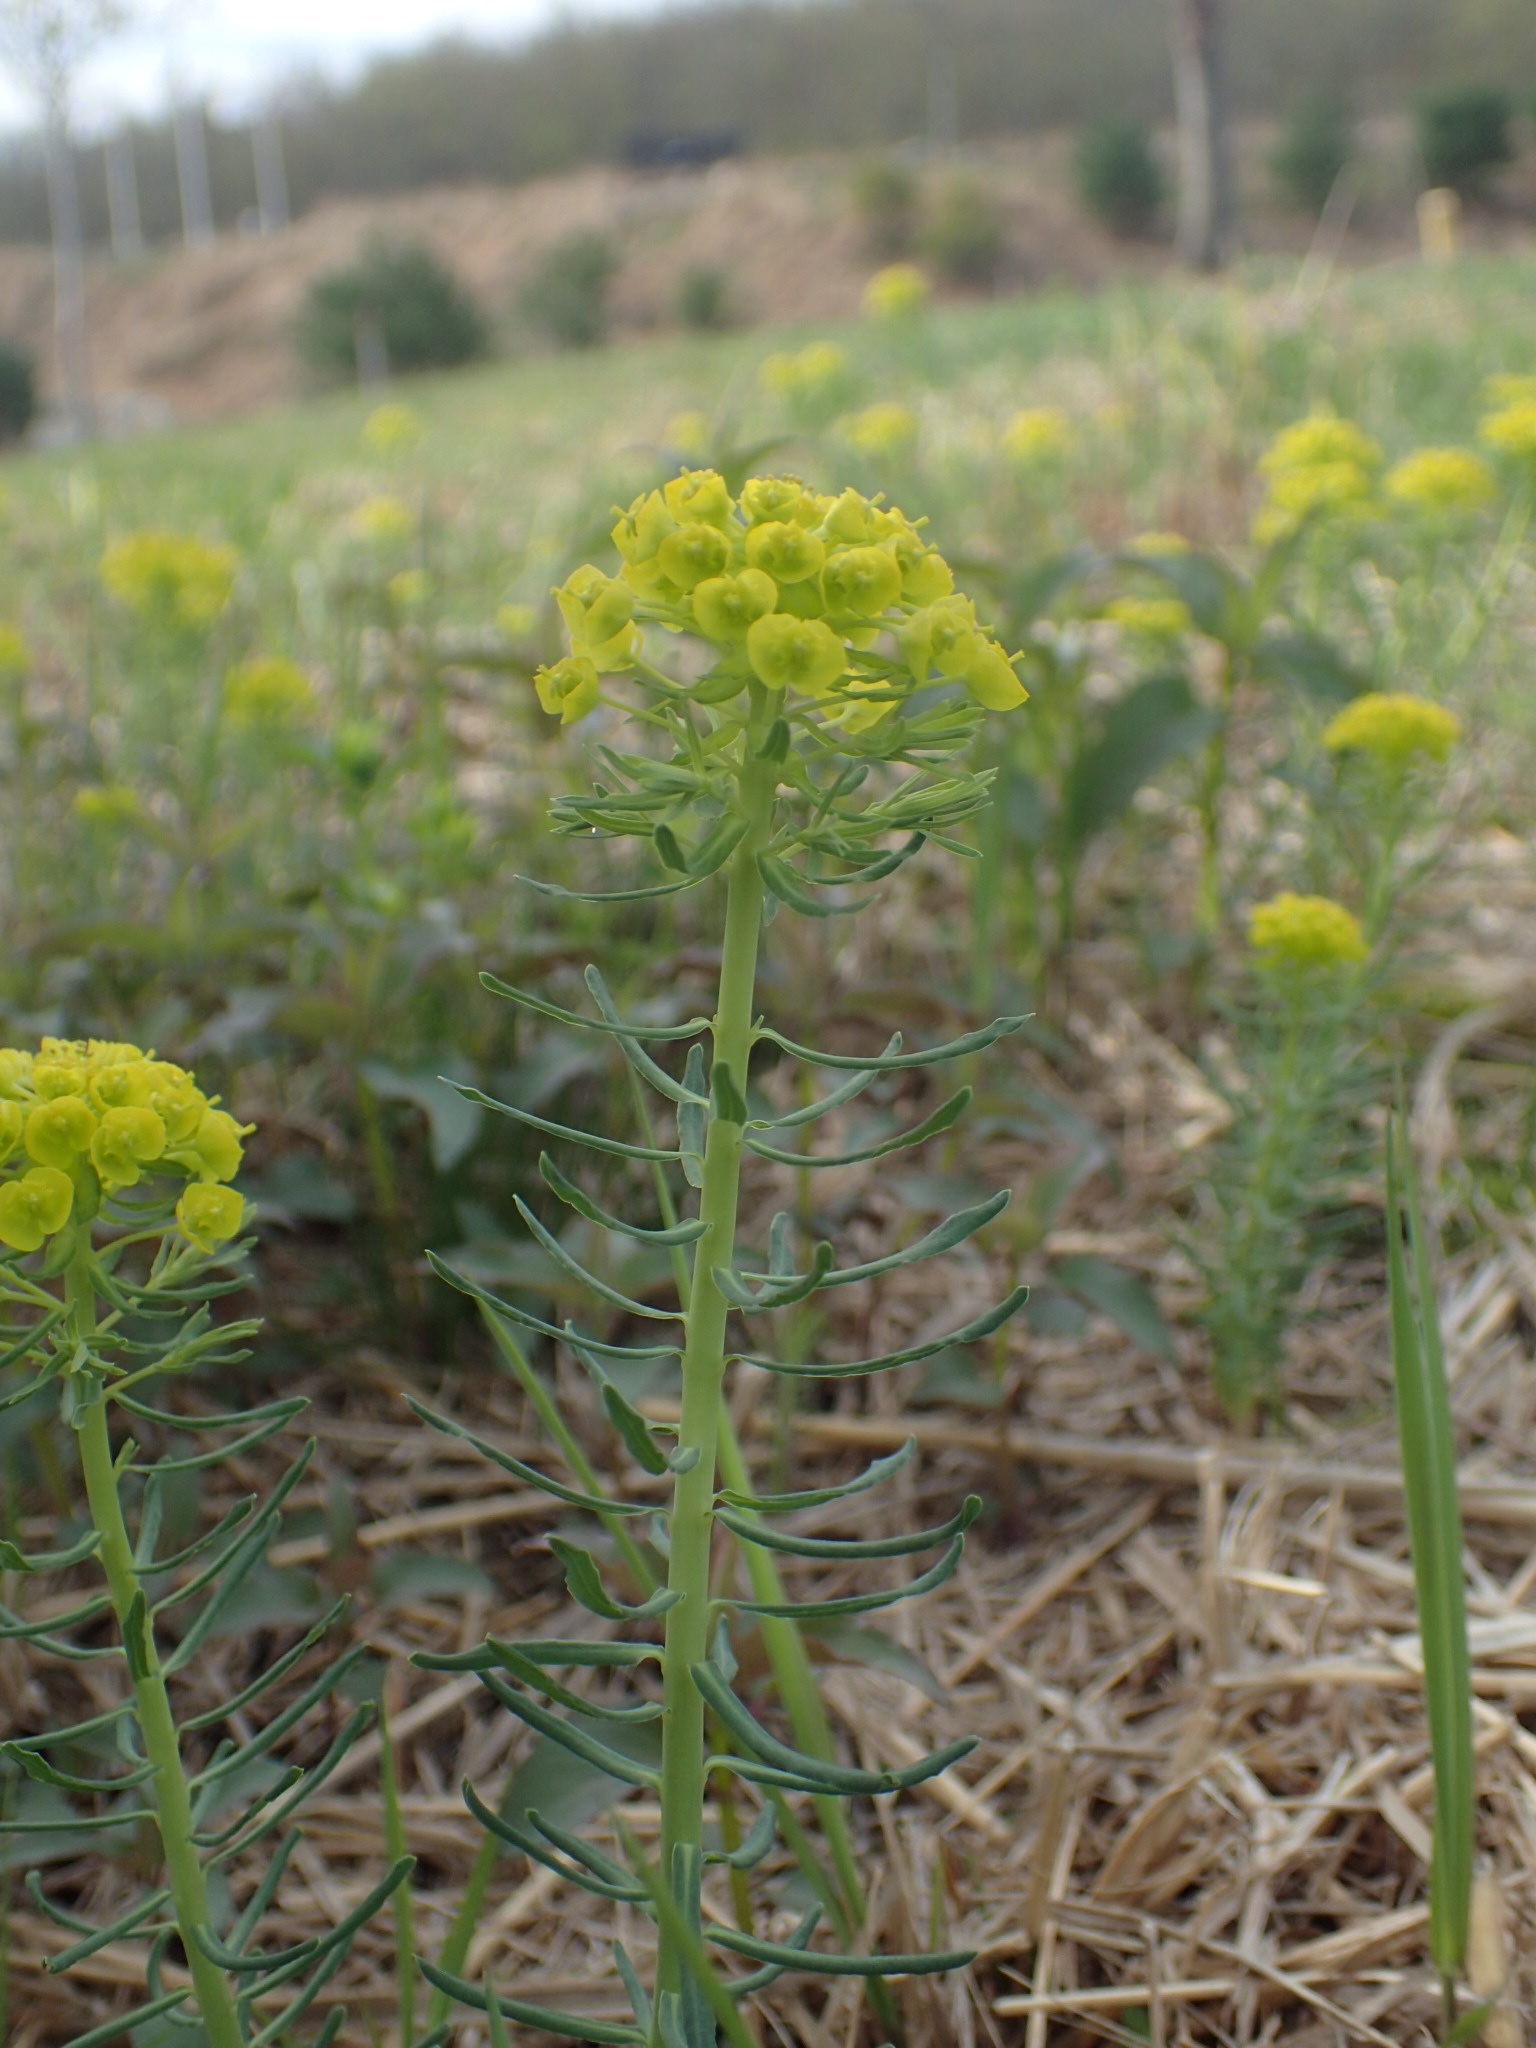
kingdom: Plantae
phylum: Tracheophyta
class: Magnoliopsida
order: Malpighiales
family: Euphorbiaceae
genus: Euphorbia
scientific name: Euphorbia cyparissias
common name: Cypress spurge
